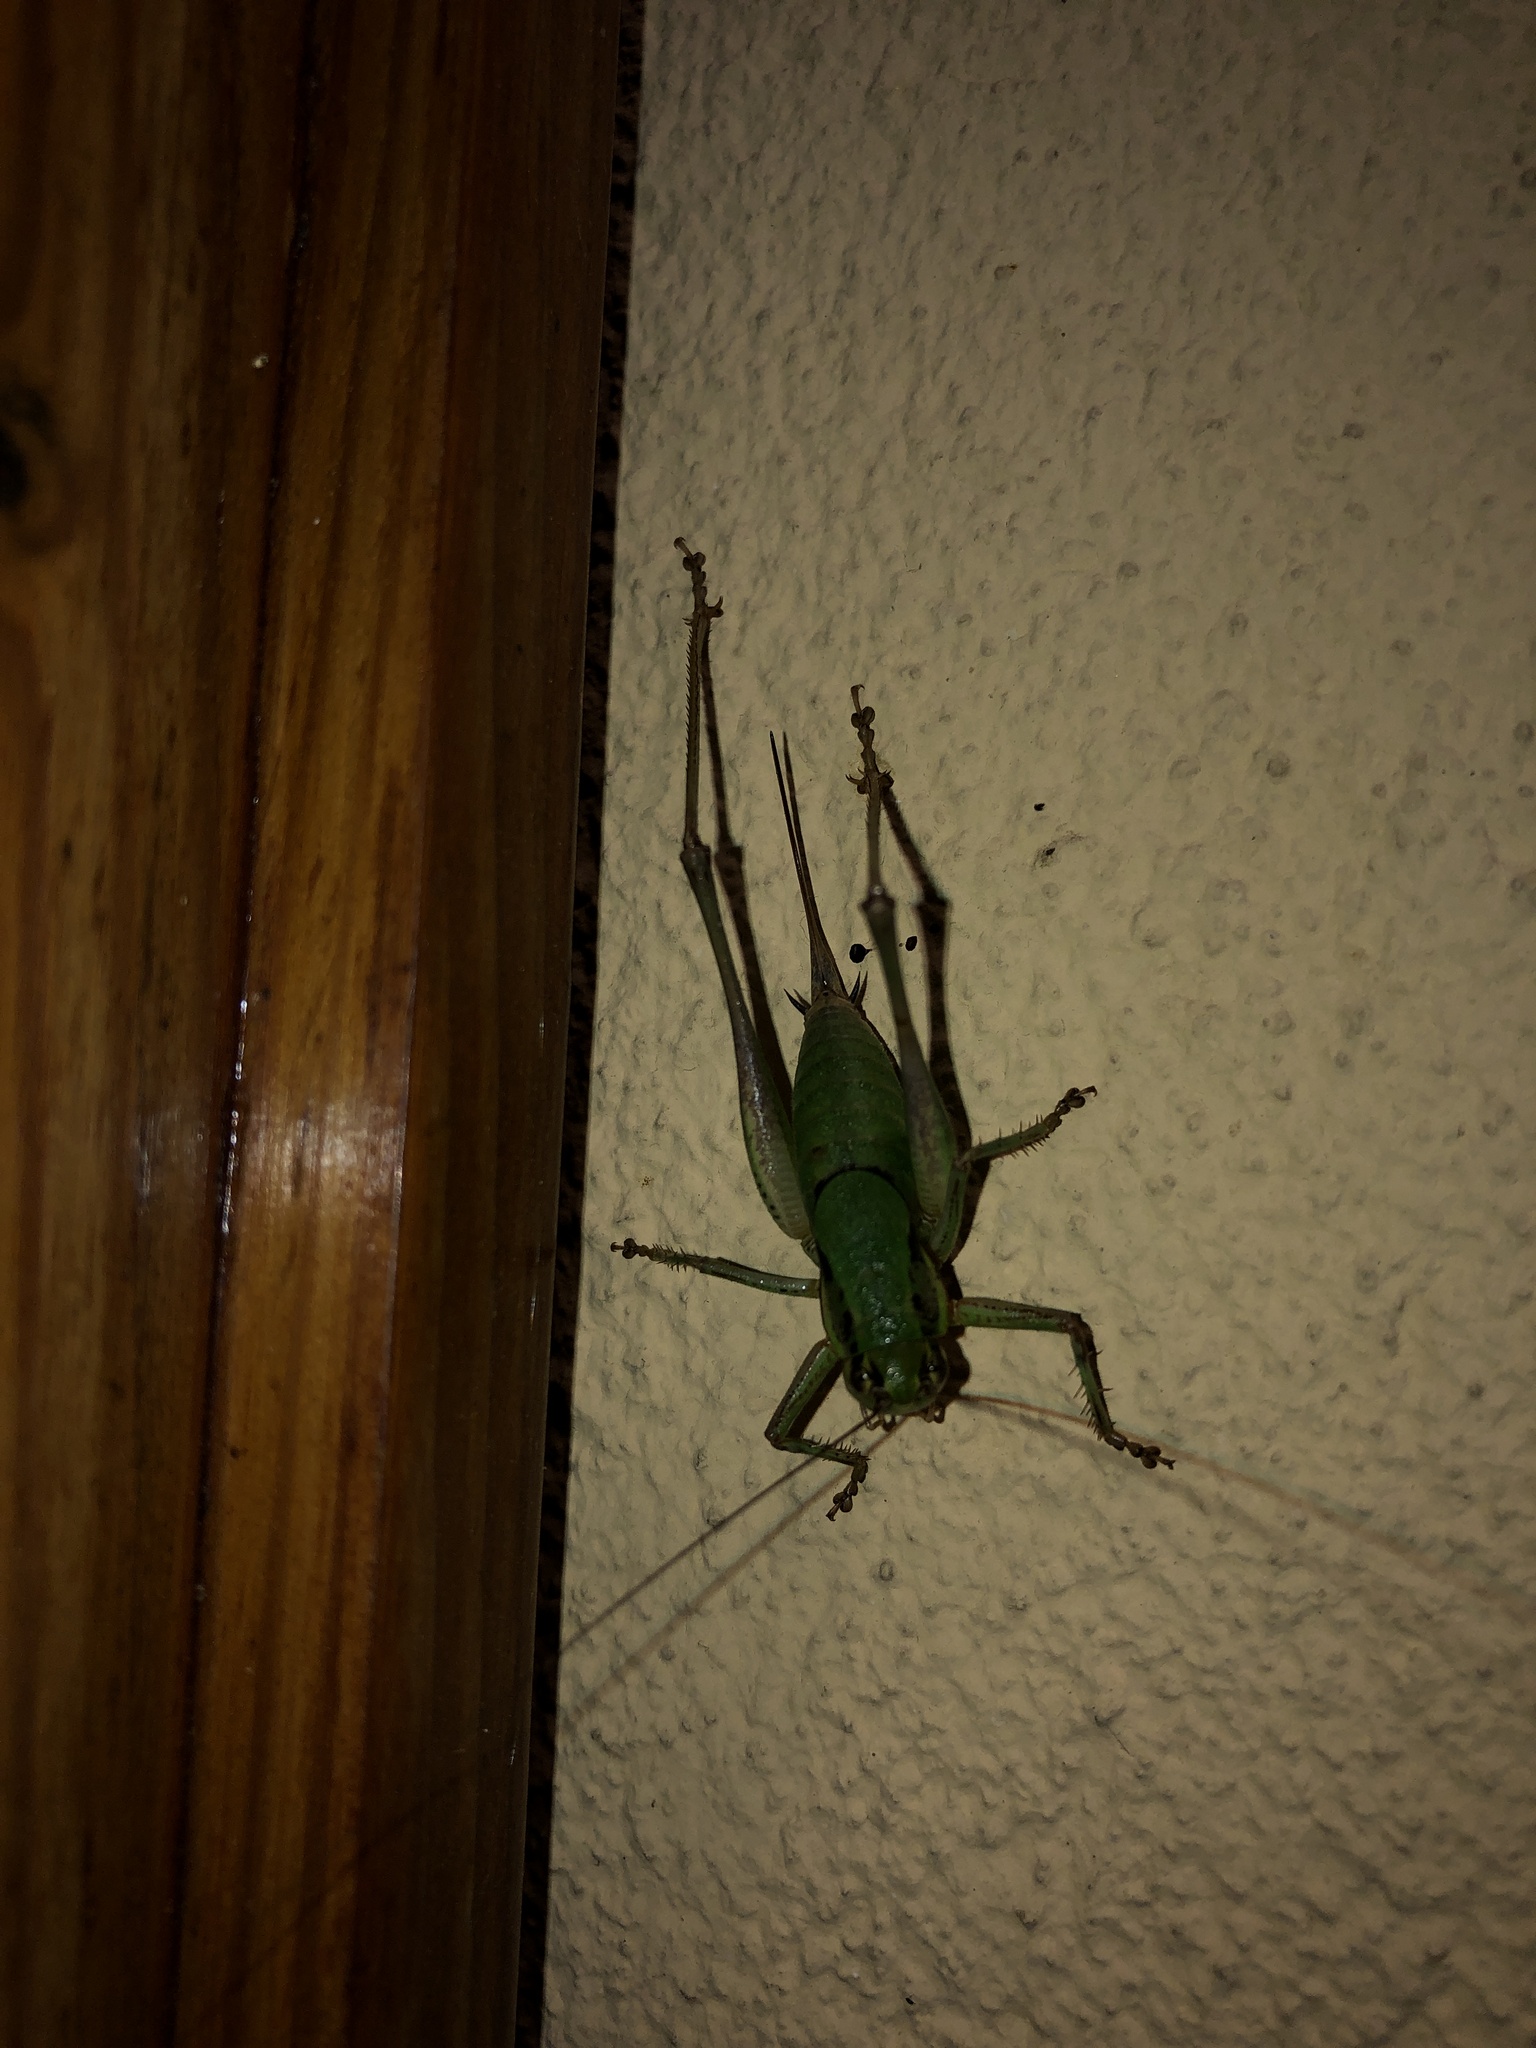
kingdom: Animalia
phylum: Arthropoda
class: Insecta
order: Orthoptera
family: Tettigoniidae
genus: Eupholidoptera
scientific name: Eupholidoptera chabrieri
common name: Chabrier's marbled bush-cricket
